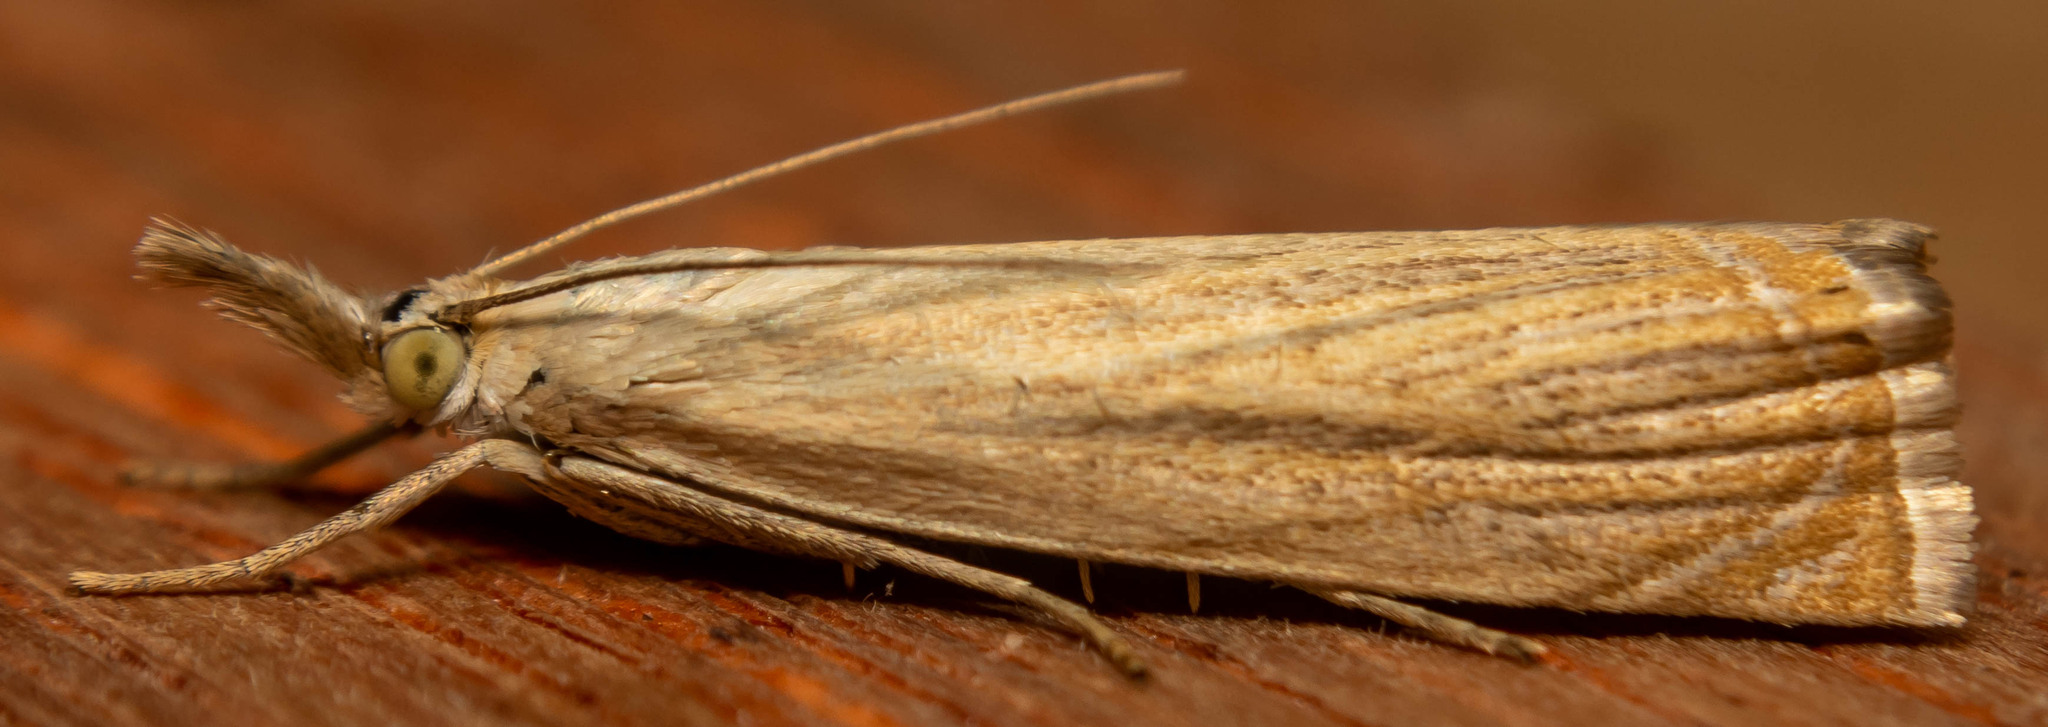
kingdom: Animalia
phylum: Arthropoda
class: Insecta
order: Lepidoptera
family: Crambidae
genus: Chrysoteuchia
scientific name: Chrysoteuchia culmella
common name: Garden grass-veneer
